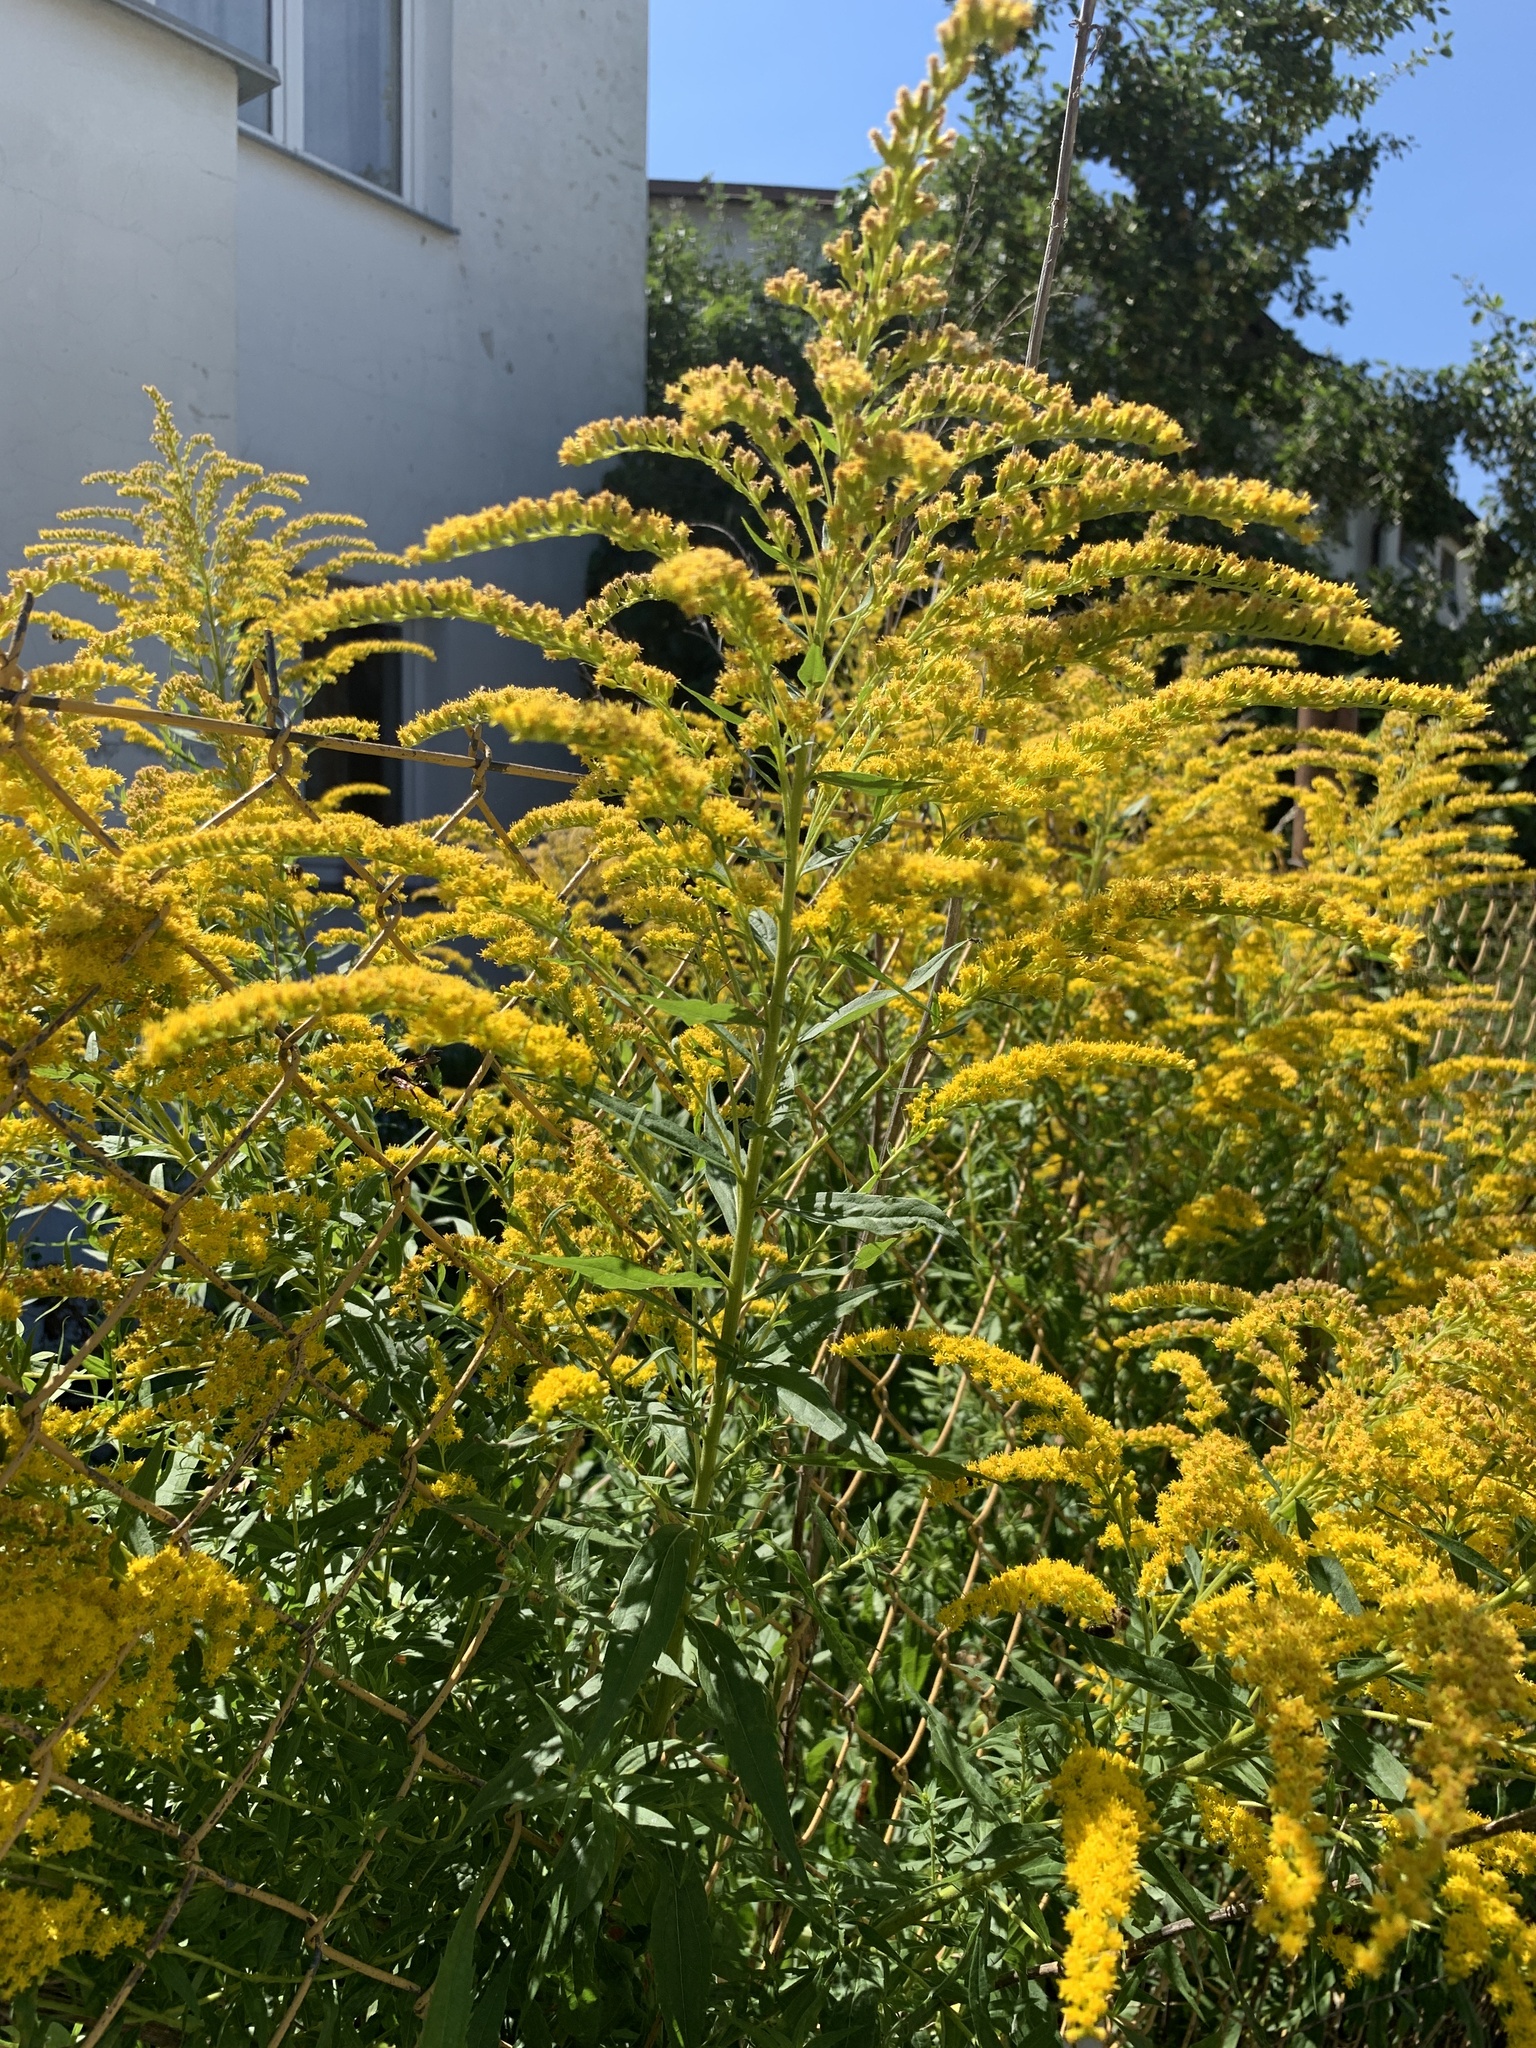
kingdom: Plantae
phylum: Tracheophyta
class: Magnoliopsida
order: Asterales
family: Asteraceae
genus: Solidago
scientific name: Solidago canadensis
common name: Canada goldenrod
